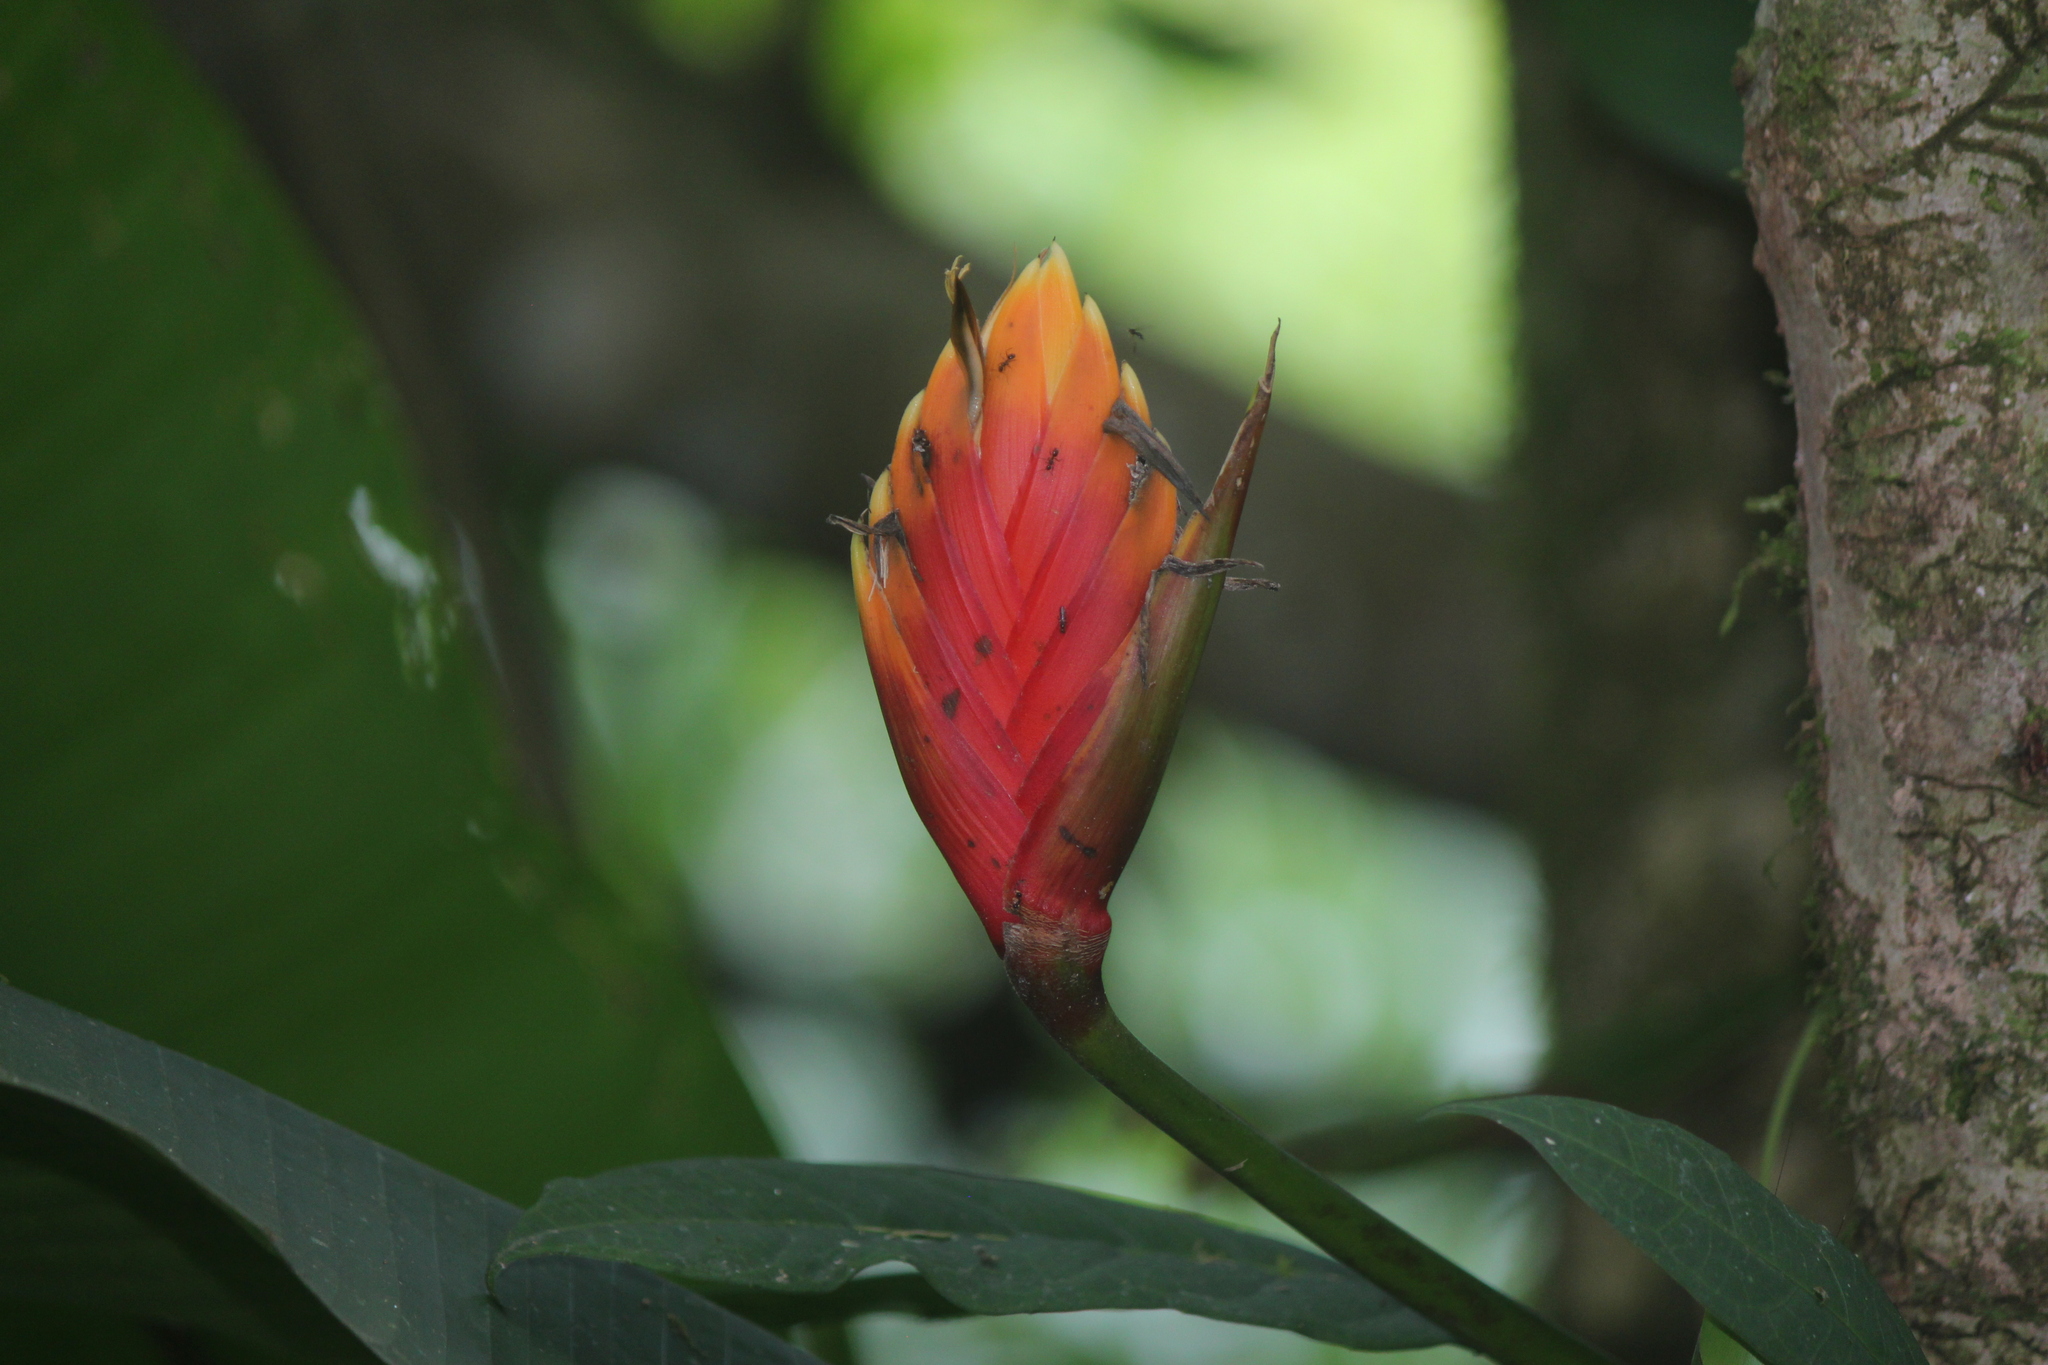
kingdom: Plantae
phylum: Tracheophyta
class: Liliopsida
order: Zingiberales
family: Heliconiaceae
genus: Heliconia
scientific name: Heliconia episcopalis
